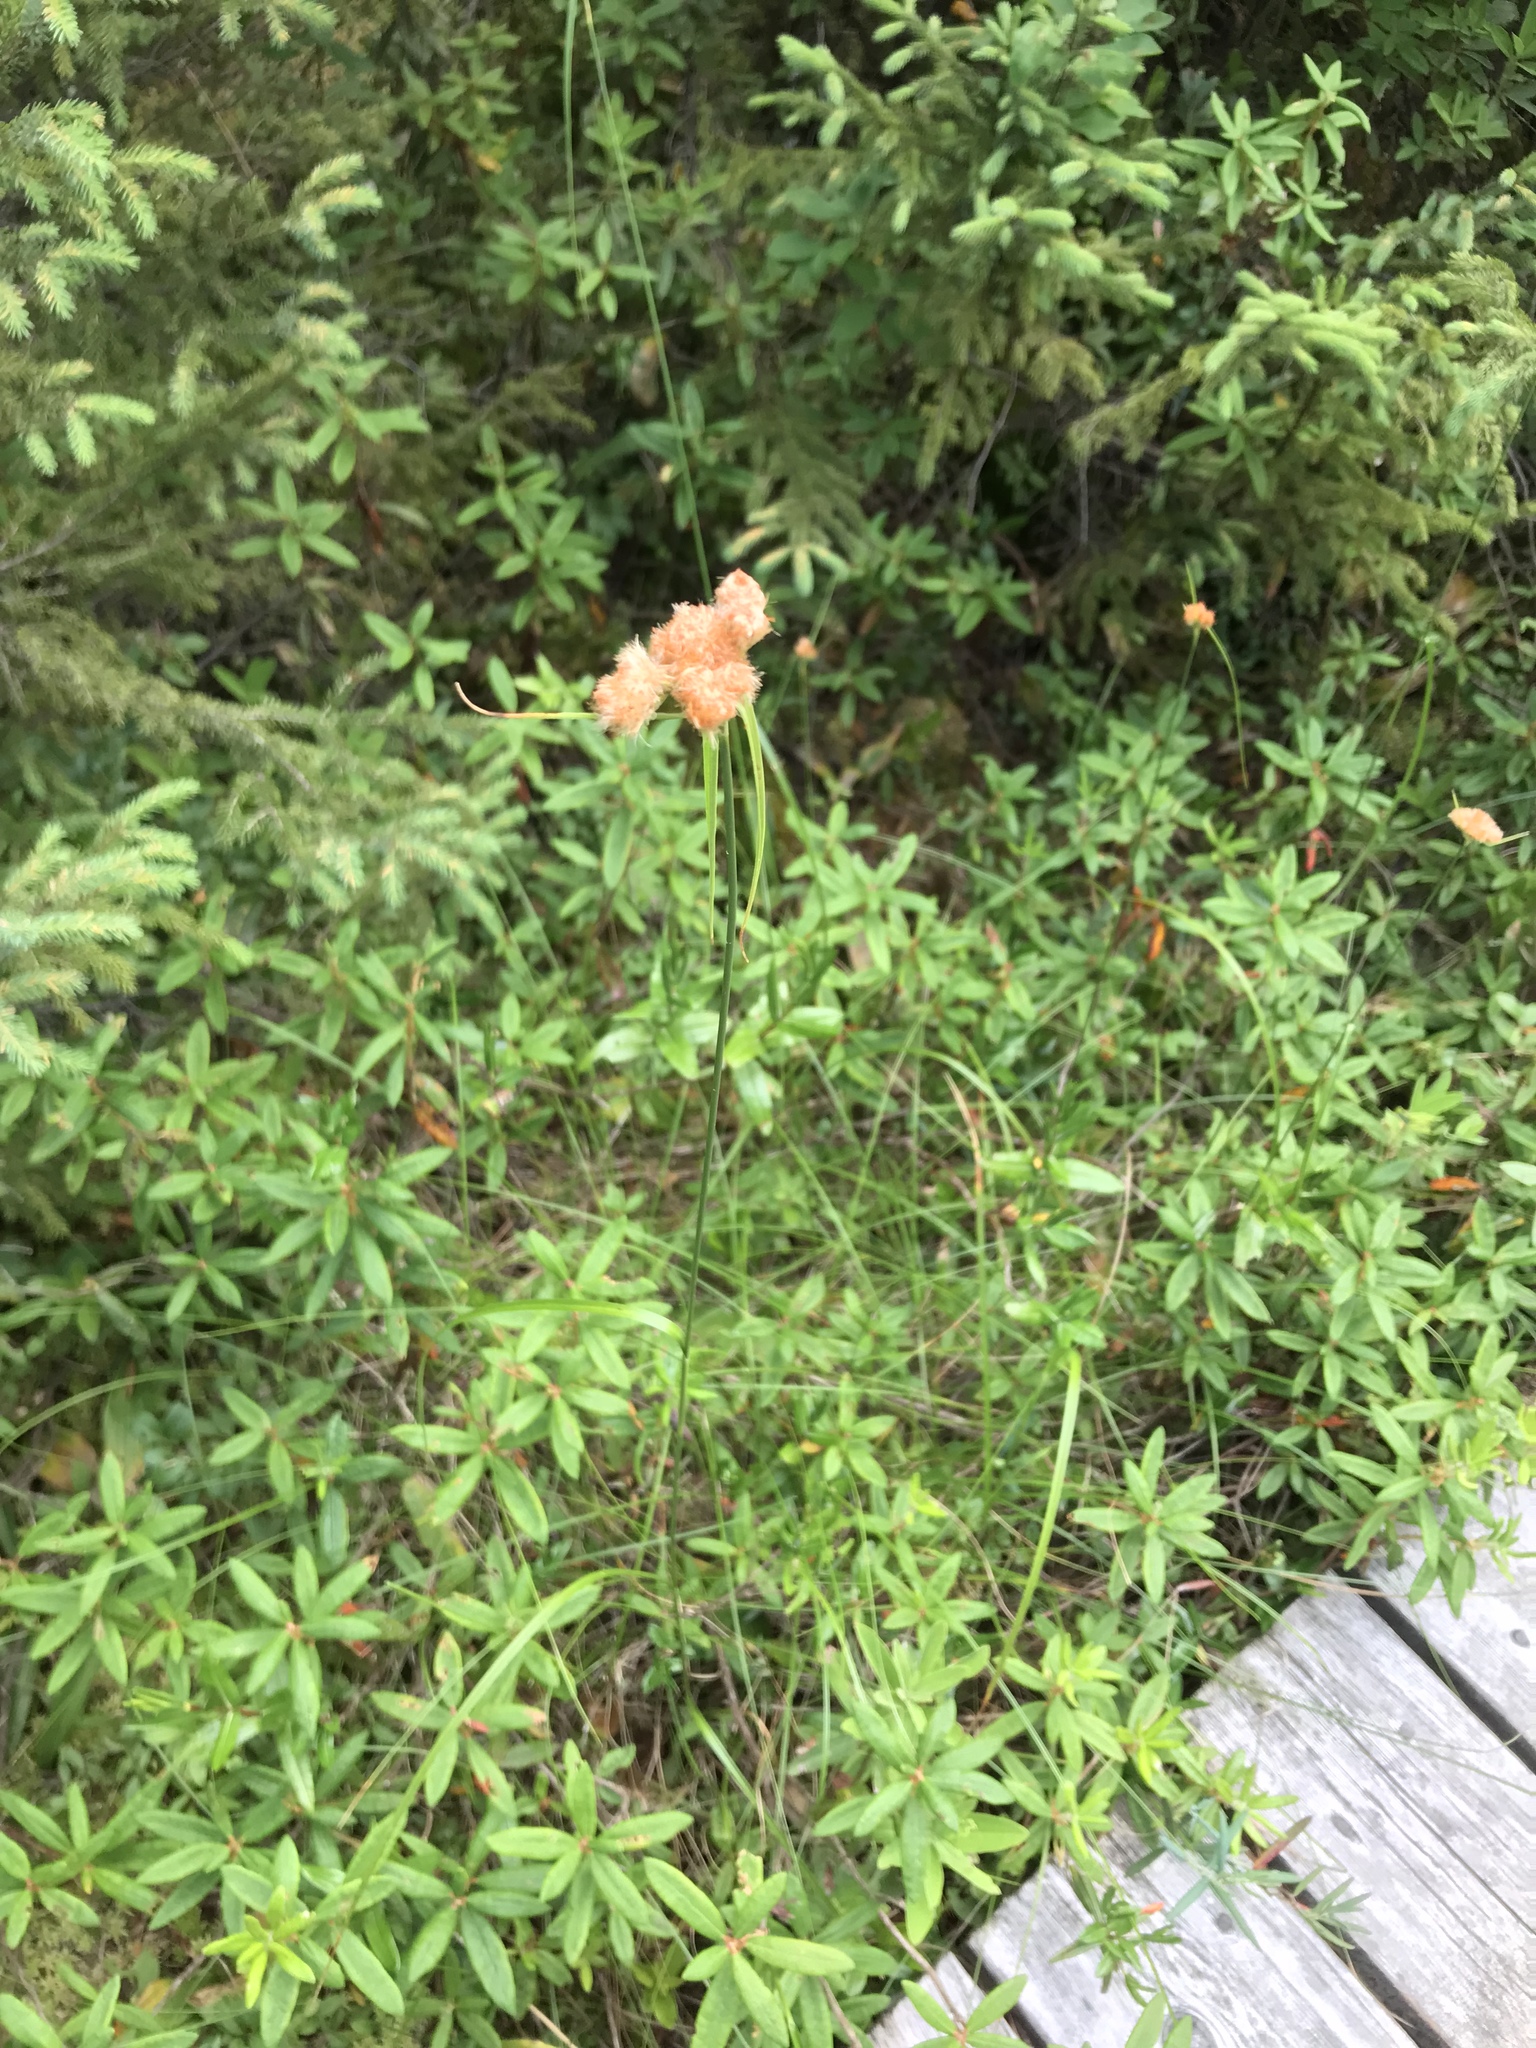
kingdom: Plantae
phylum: Tracheophyta
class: Liliopsida
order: Poales
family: Cyperaceae
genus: Eriophorum
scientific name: Eriophorum virginicum
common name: Tawny cottongrass
